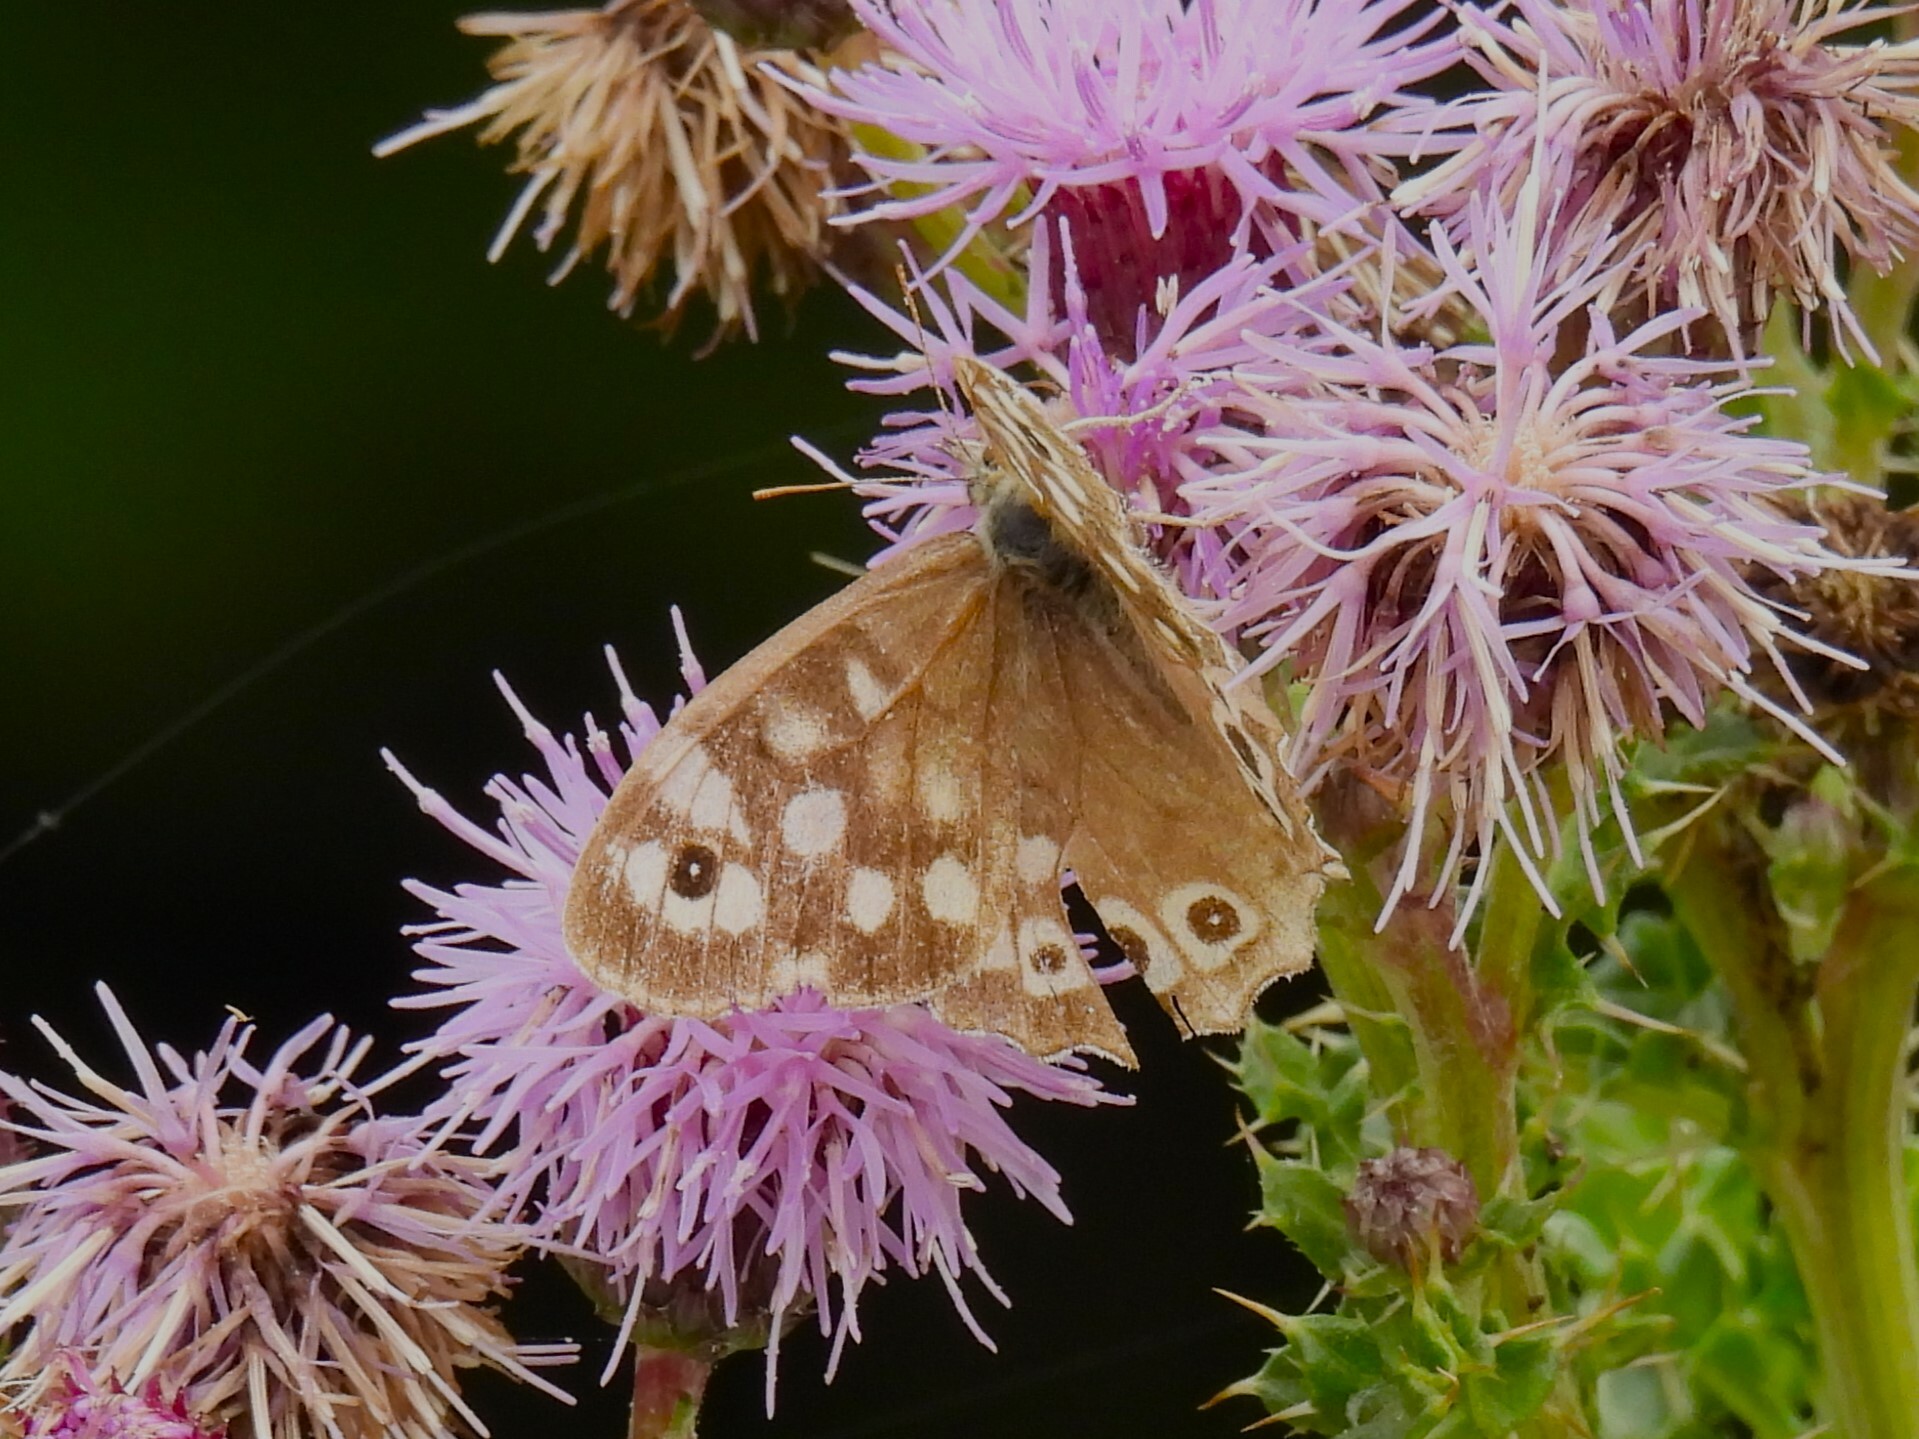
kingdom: Animalia
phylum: Arthropoda
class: Insecta
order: Lepidoptera
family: Nymphalidae
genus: Pararge
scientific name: Pararge aegeria
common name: Speckled wood
